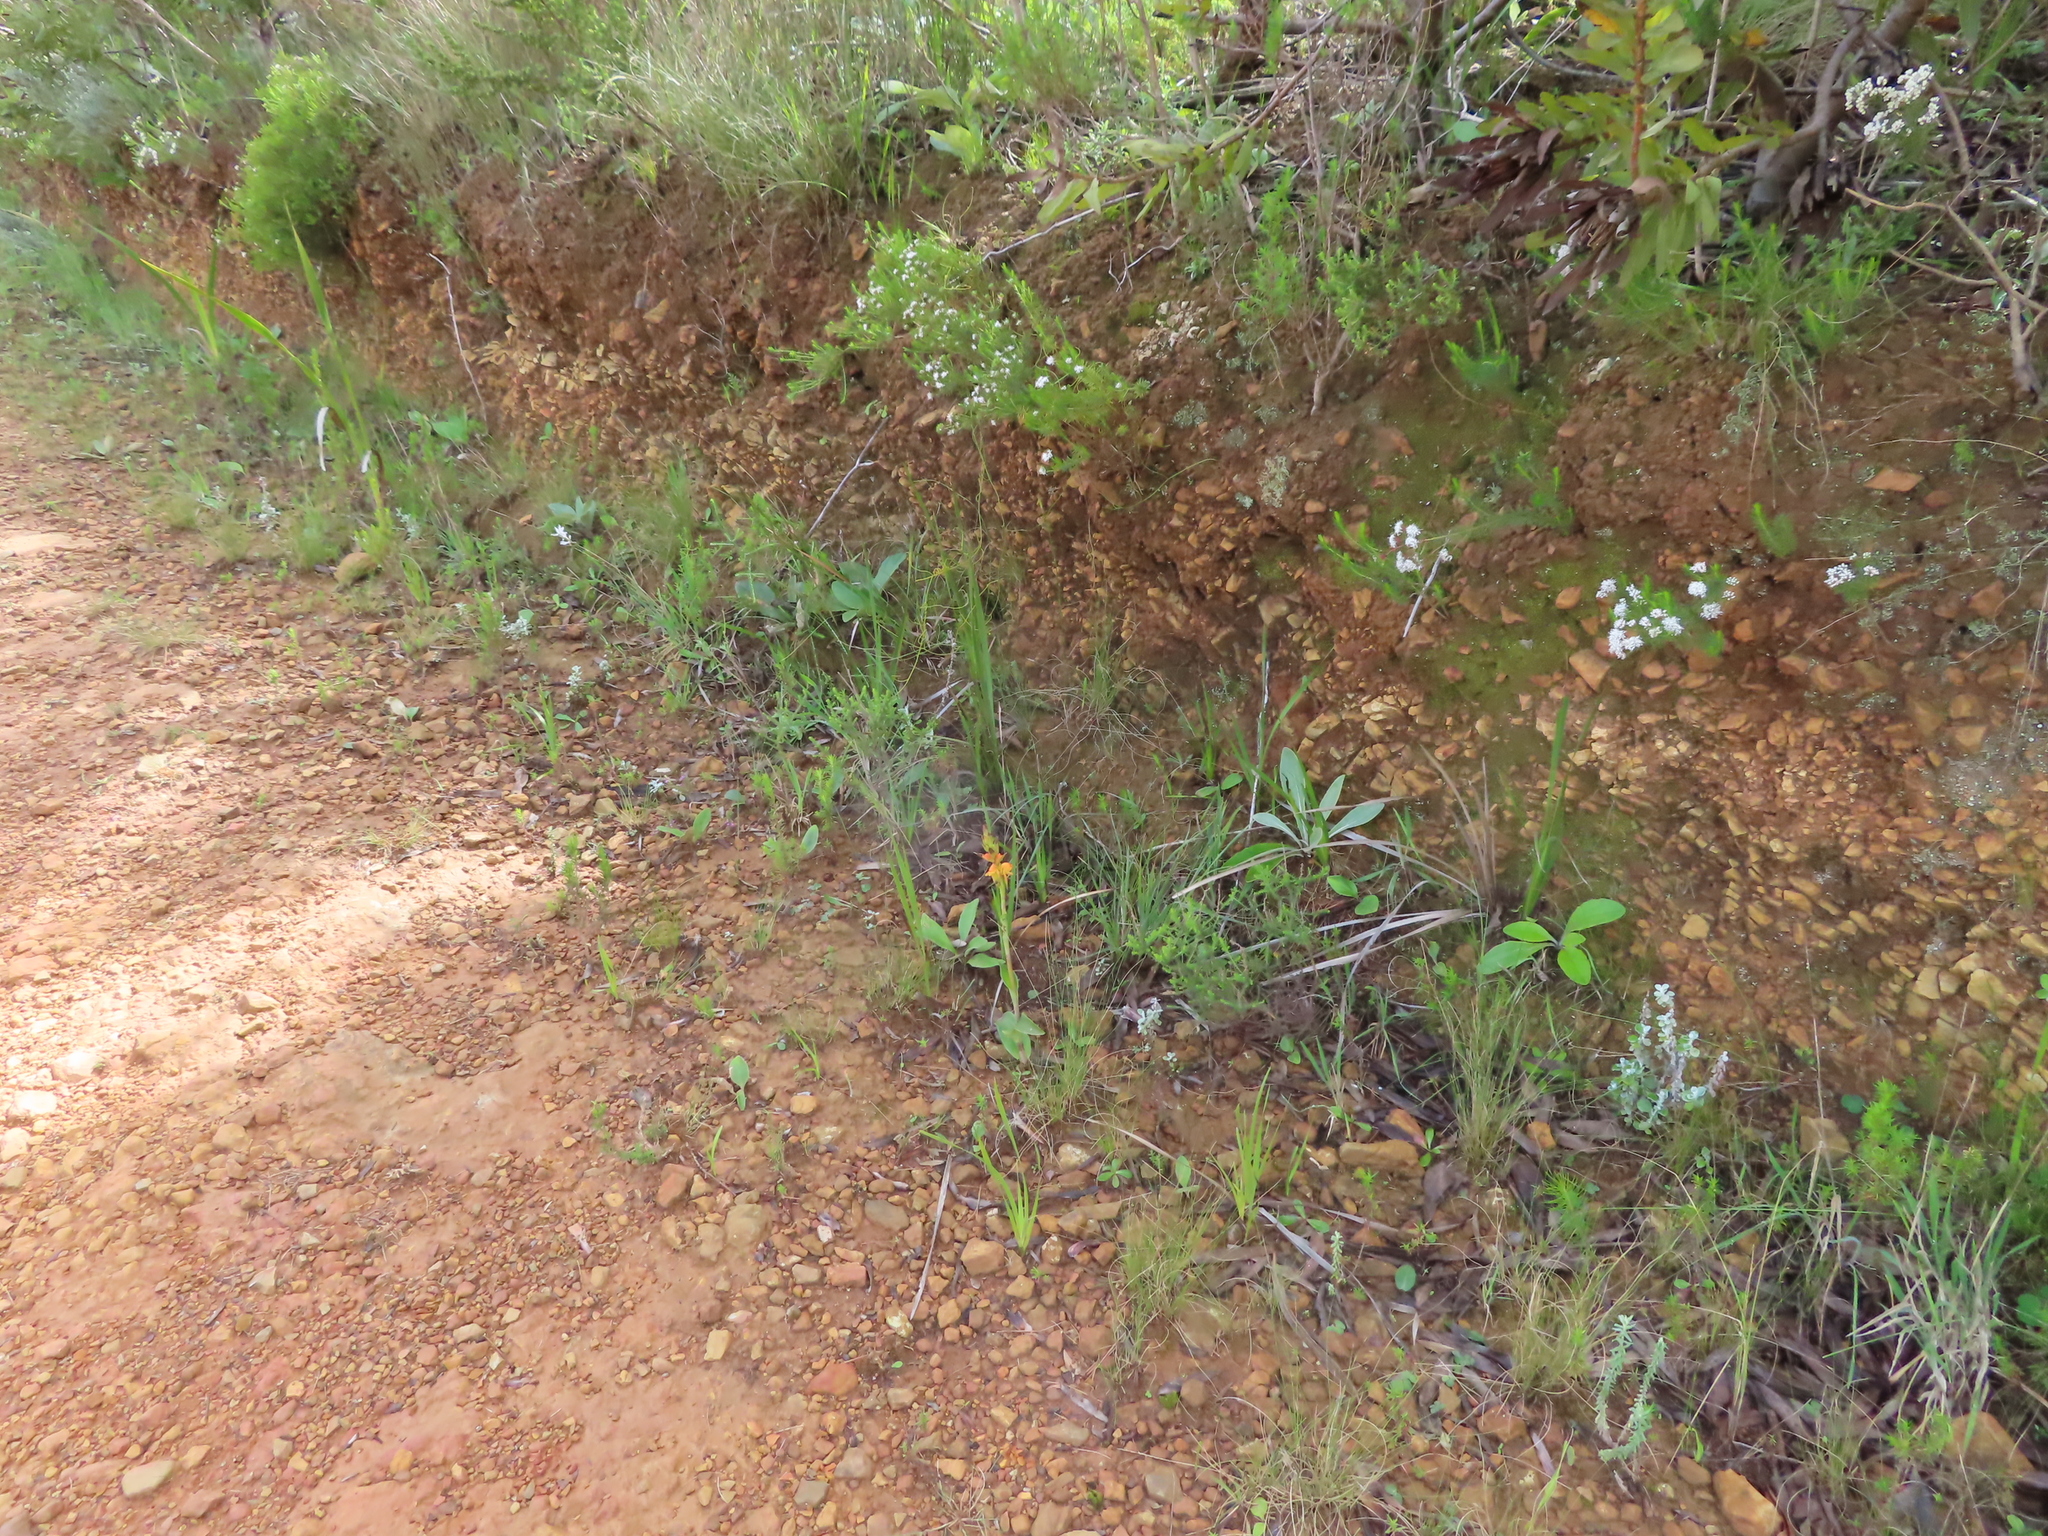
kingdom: Plantae
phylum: Tracheophyta
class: Liliopsida
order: Asparagales
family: Orchidaceae
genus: Satyrium
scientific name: Satyrium coriifolium
